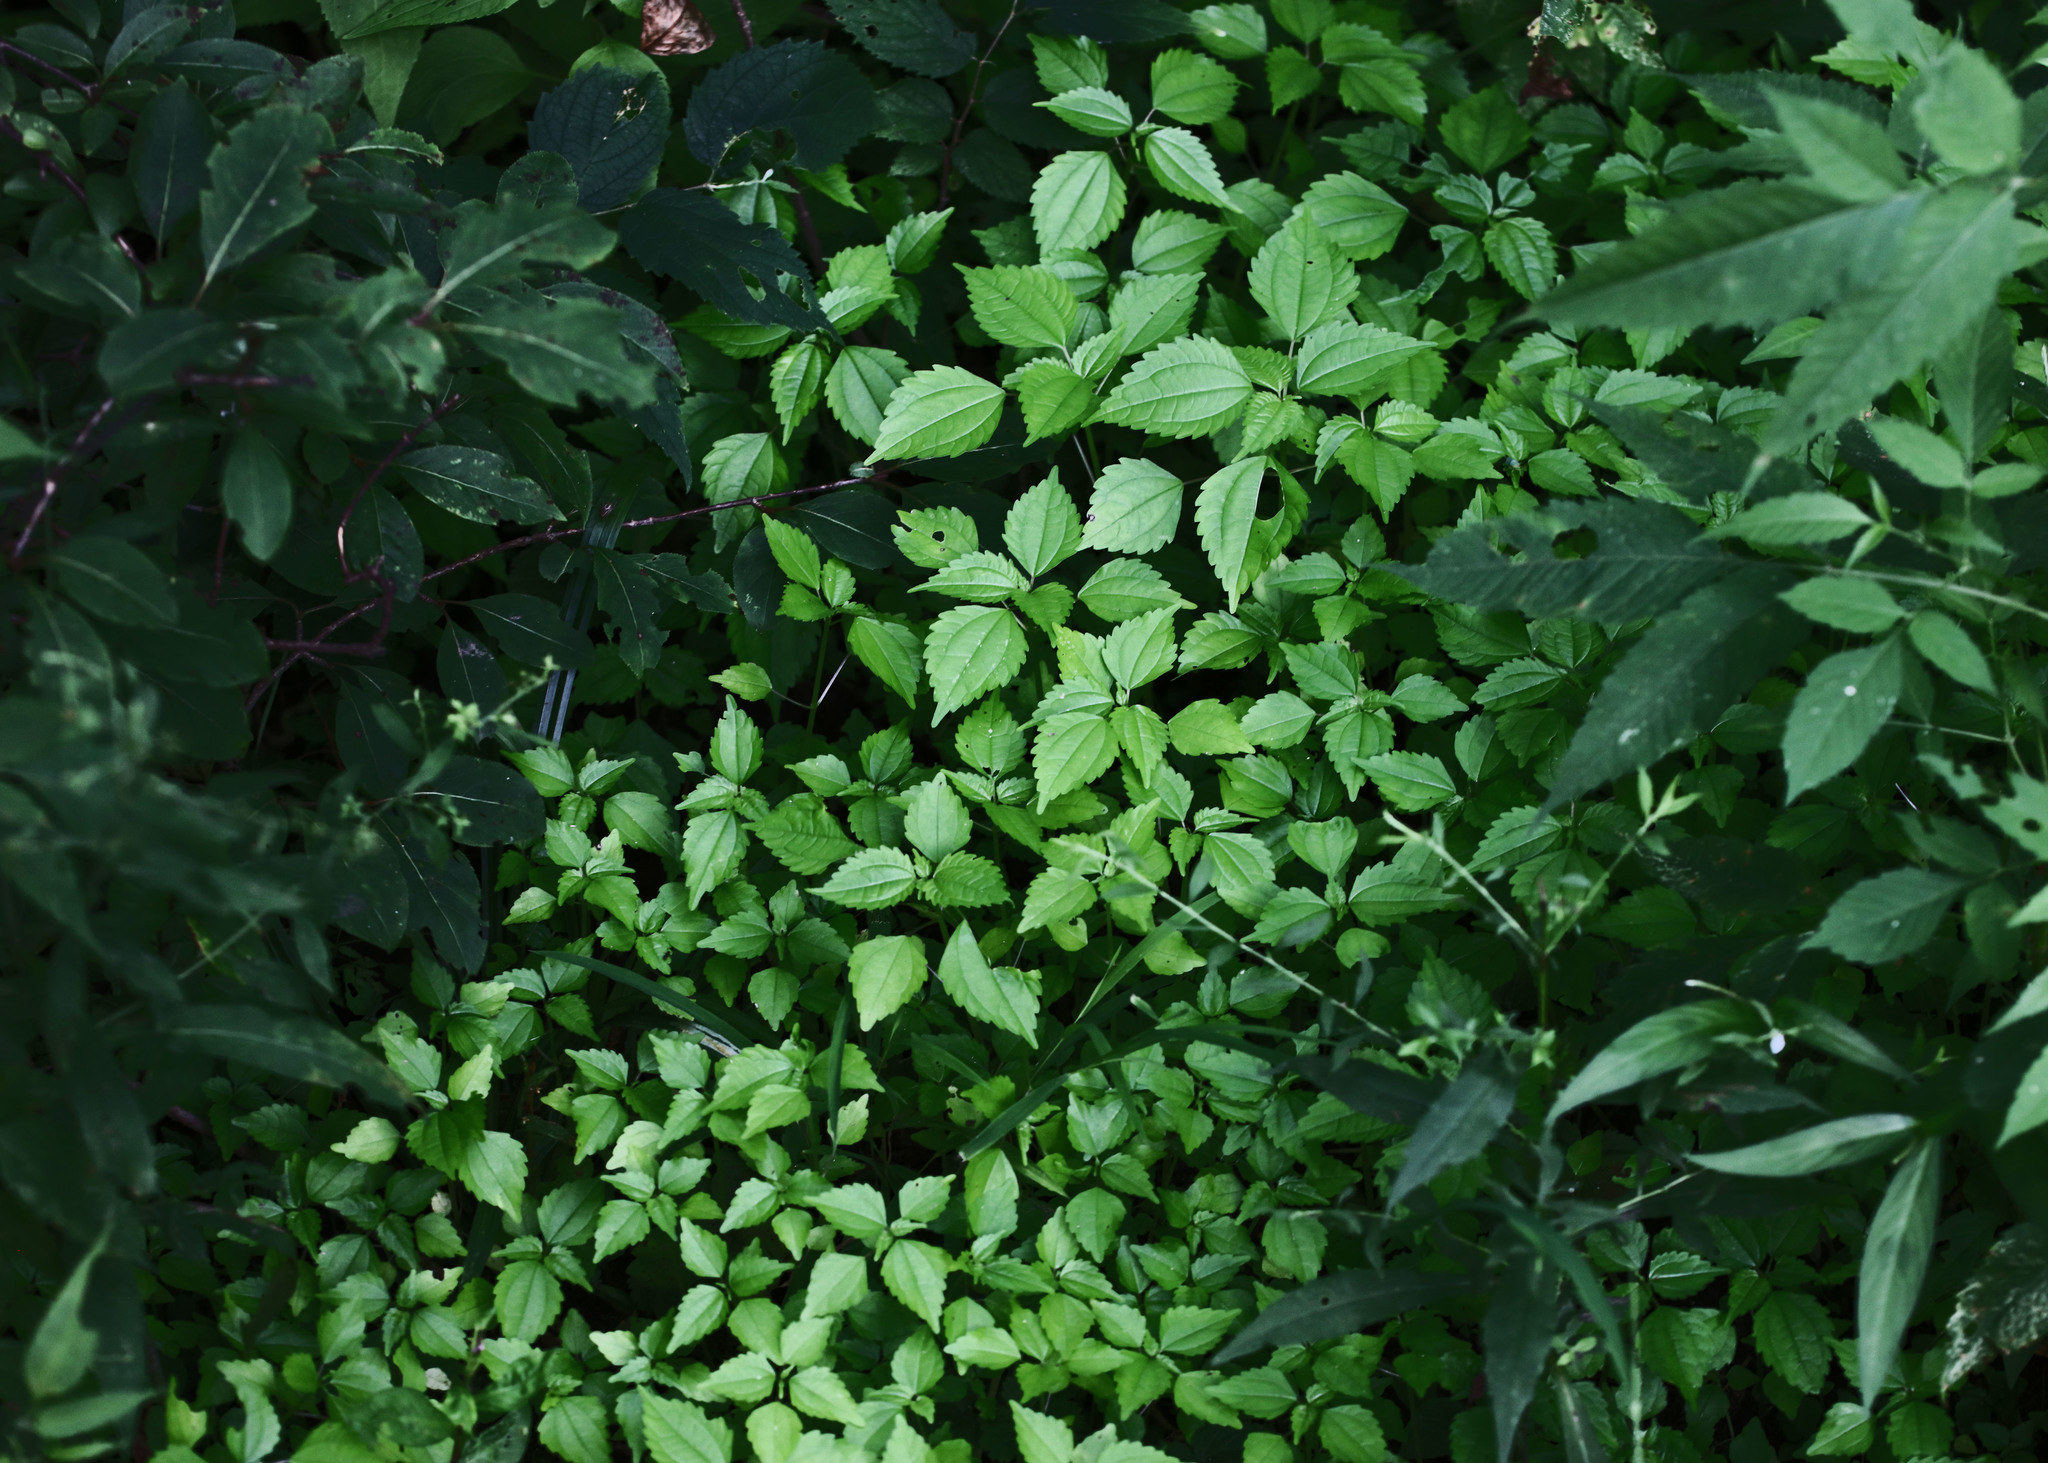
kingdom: Plantae
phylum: Tracheophyta
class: Magnoliopsida
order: Rosales
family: Urticaceae
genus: Pilea
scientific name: Pilea pumila
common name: Clearweed
